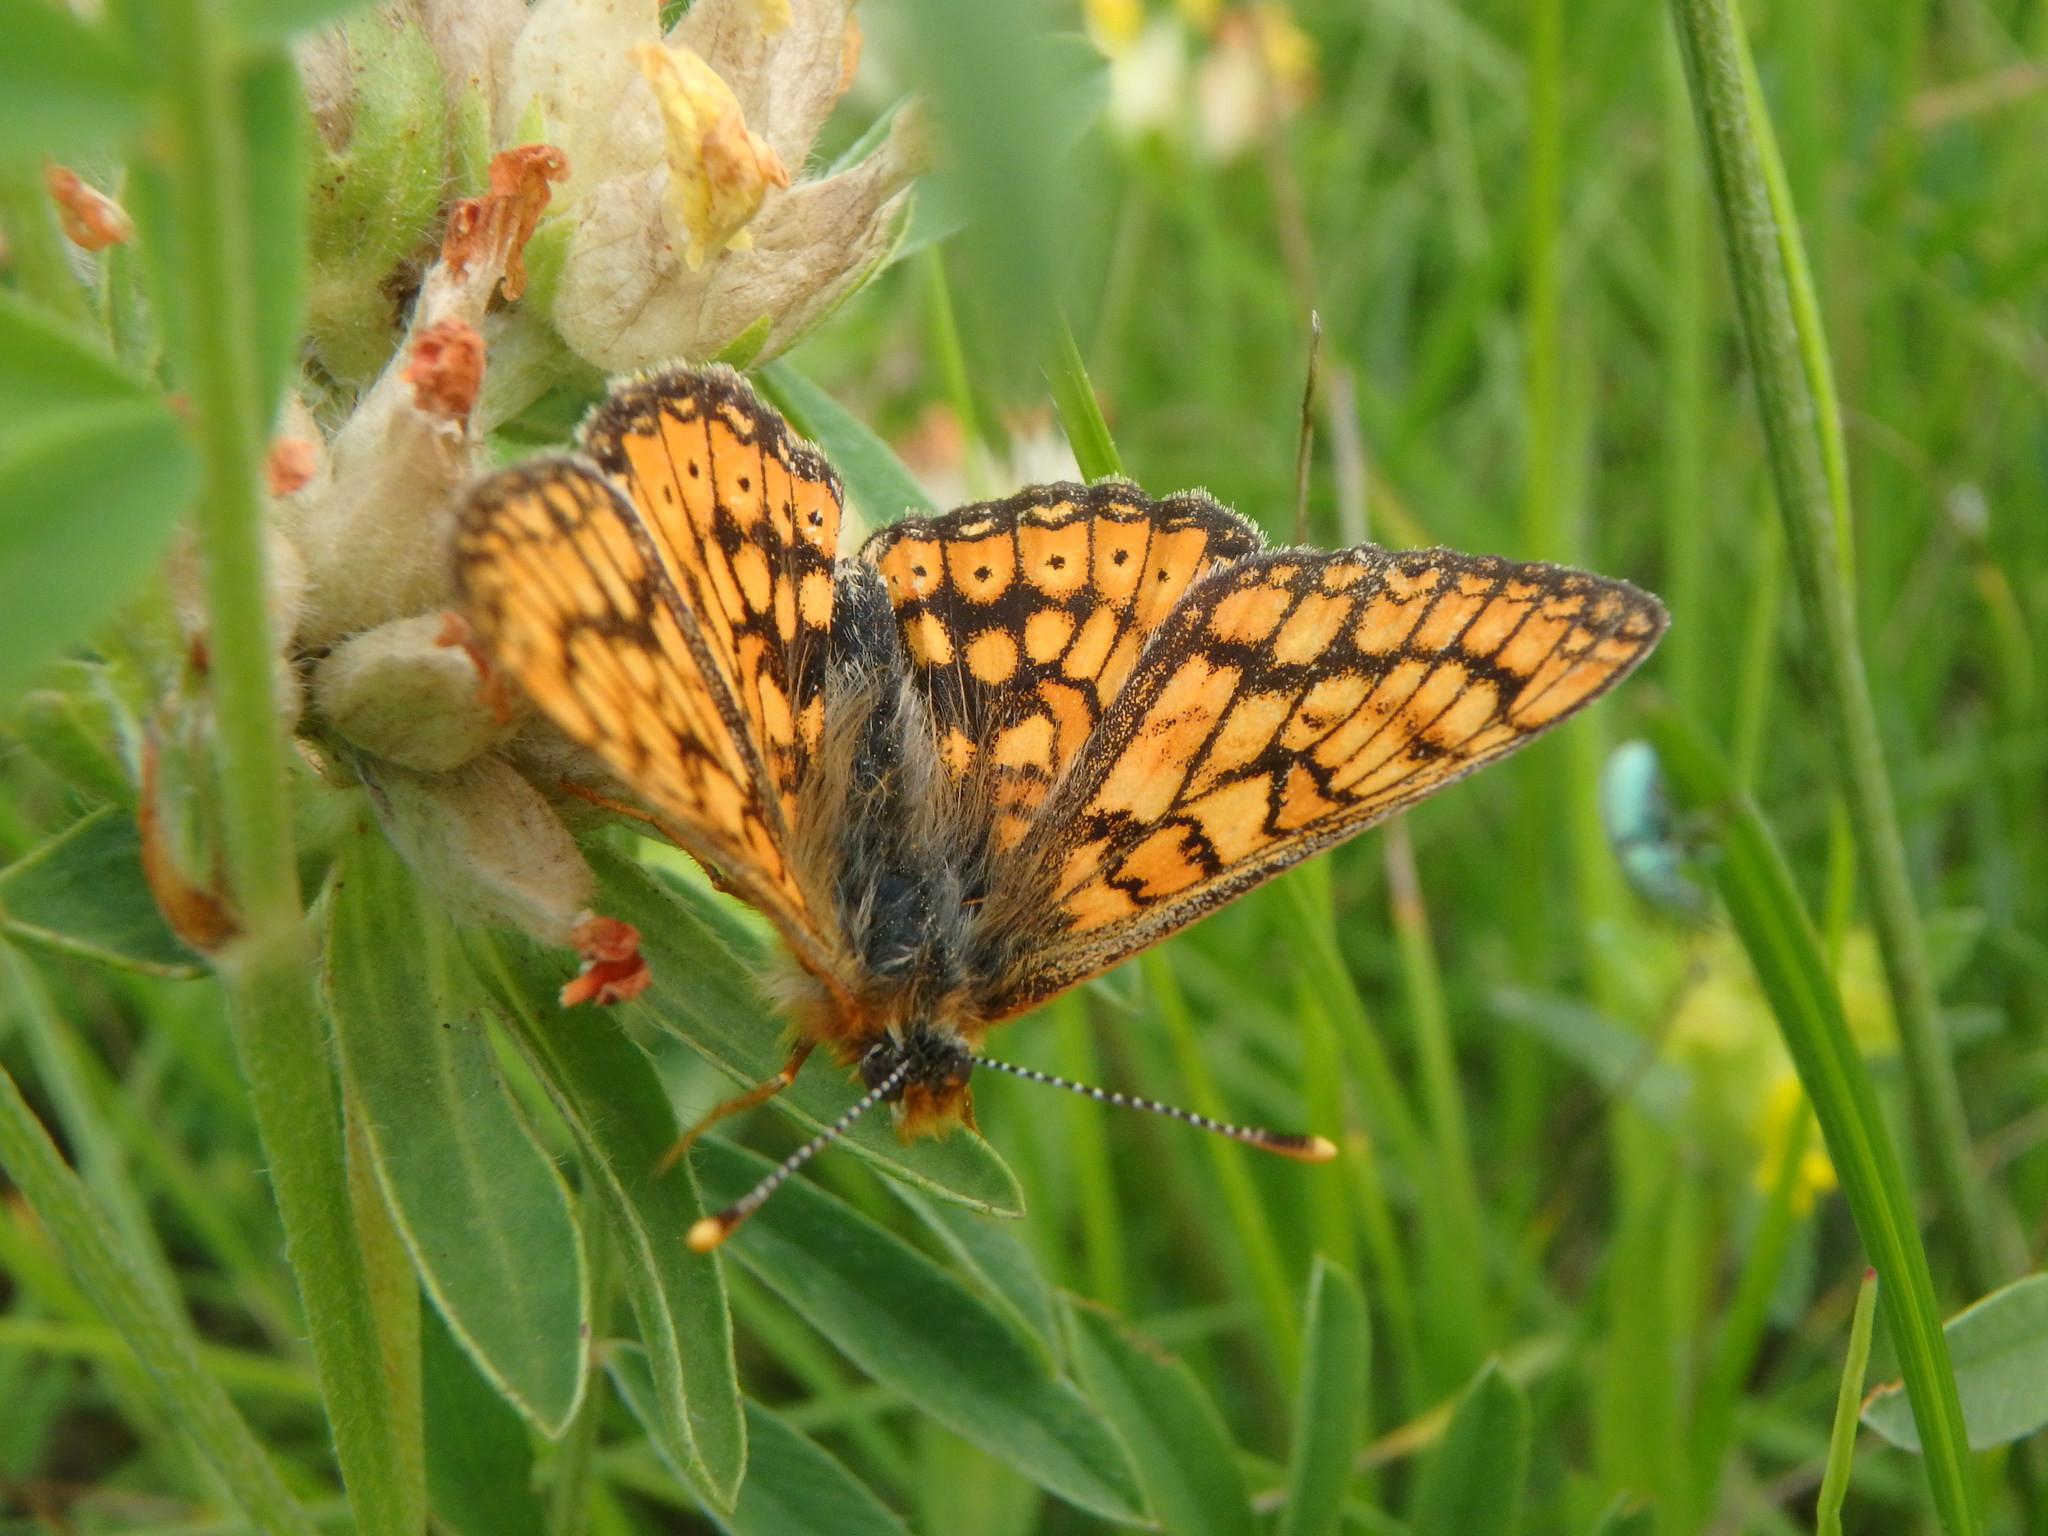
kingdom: Animalia
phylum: Arthropoda
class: Insecta
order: Lepidoptera
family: Nymphalidae
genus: Euphydryas
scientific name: Euphydryas aurinia
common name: Marsh fritillary
